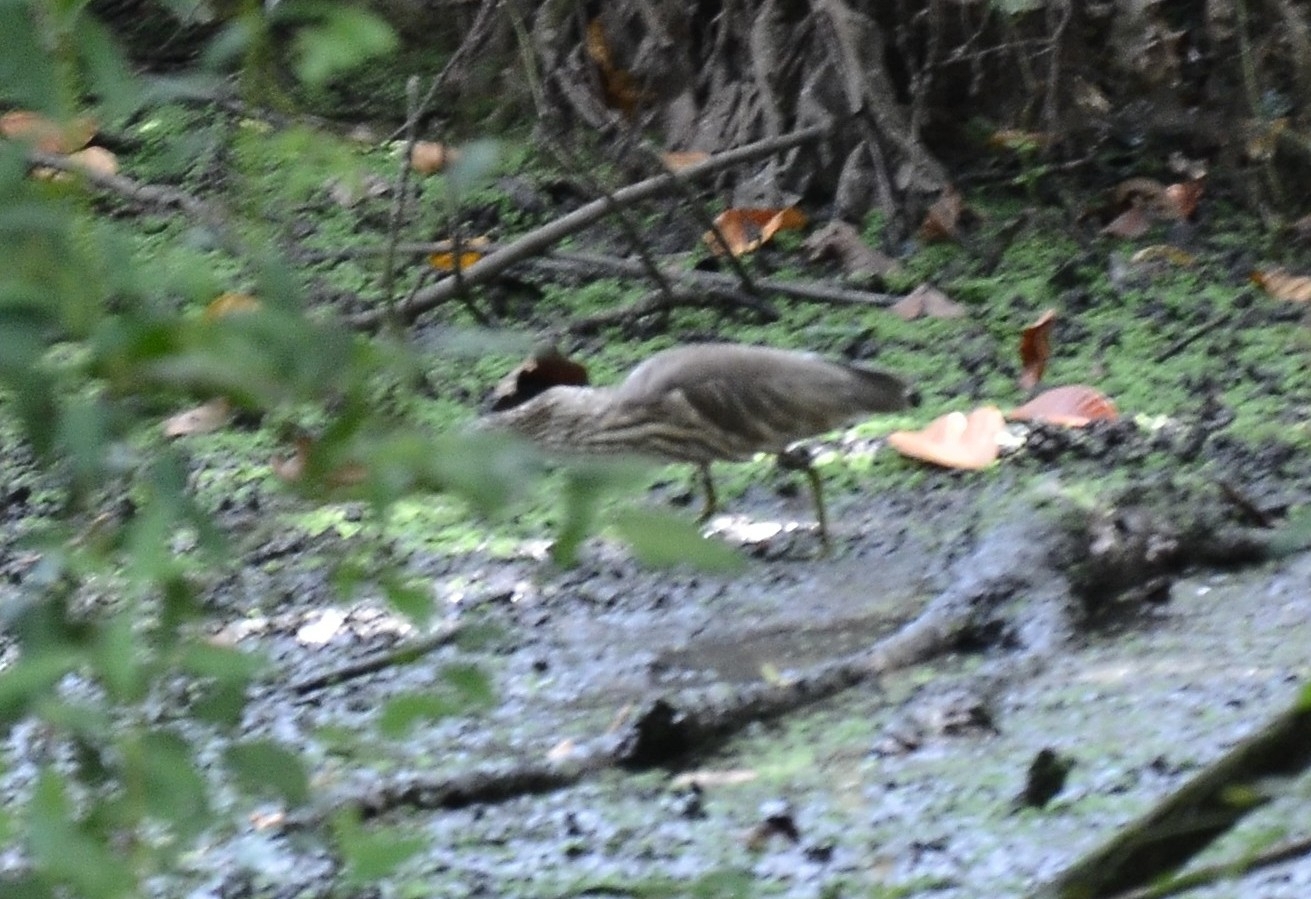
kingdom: Animalia
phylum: Chordata
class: Aves
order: Pelecaniformes
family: Ardeidae
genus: Ardeola
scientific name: Ardeola grayii
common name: Indian pond heron
